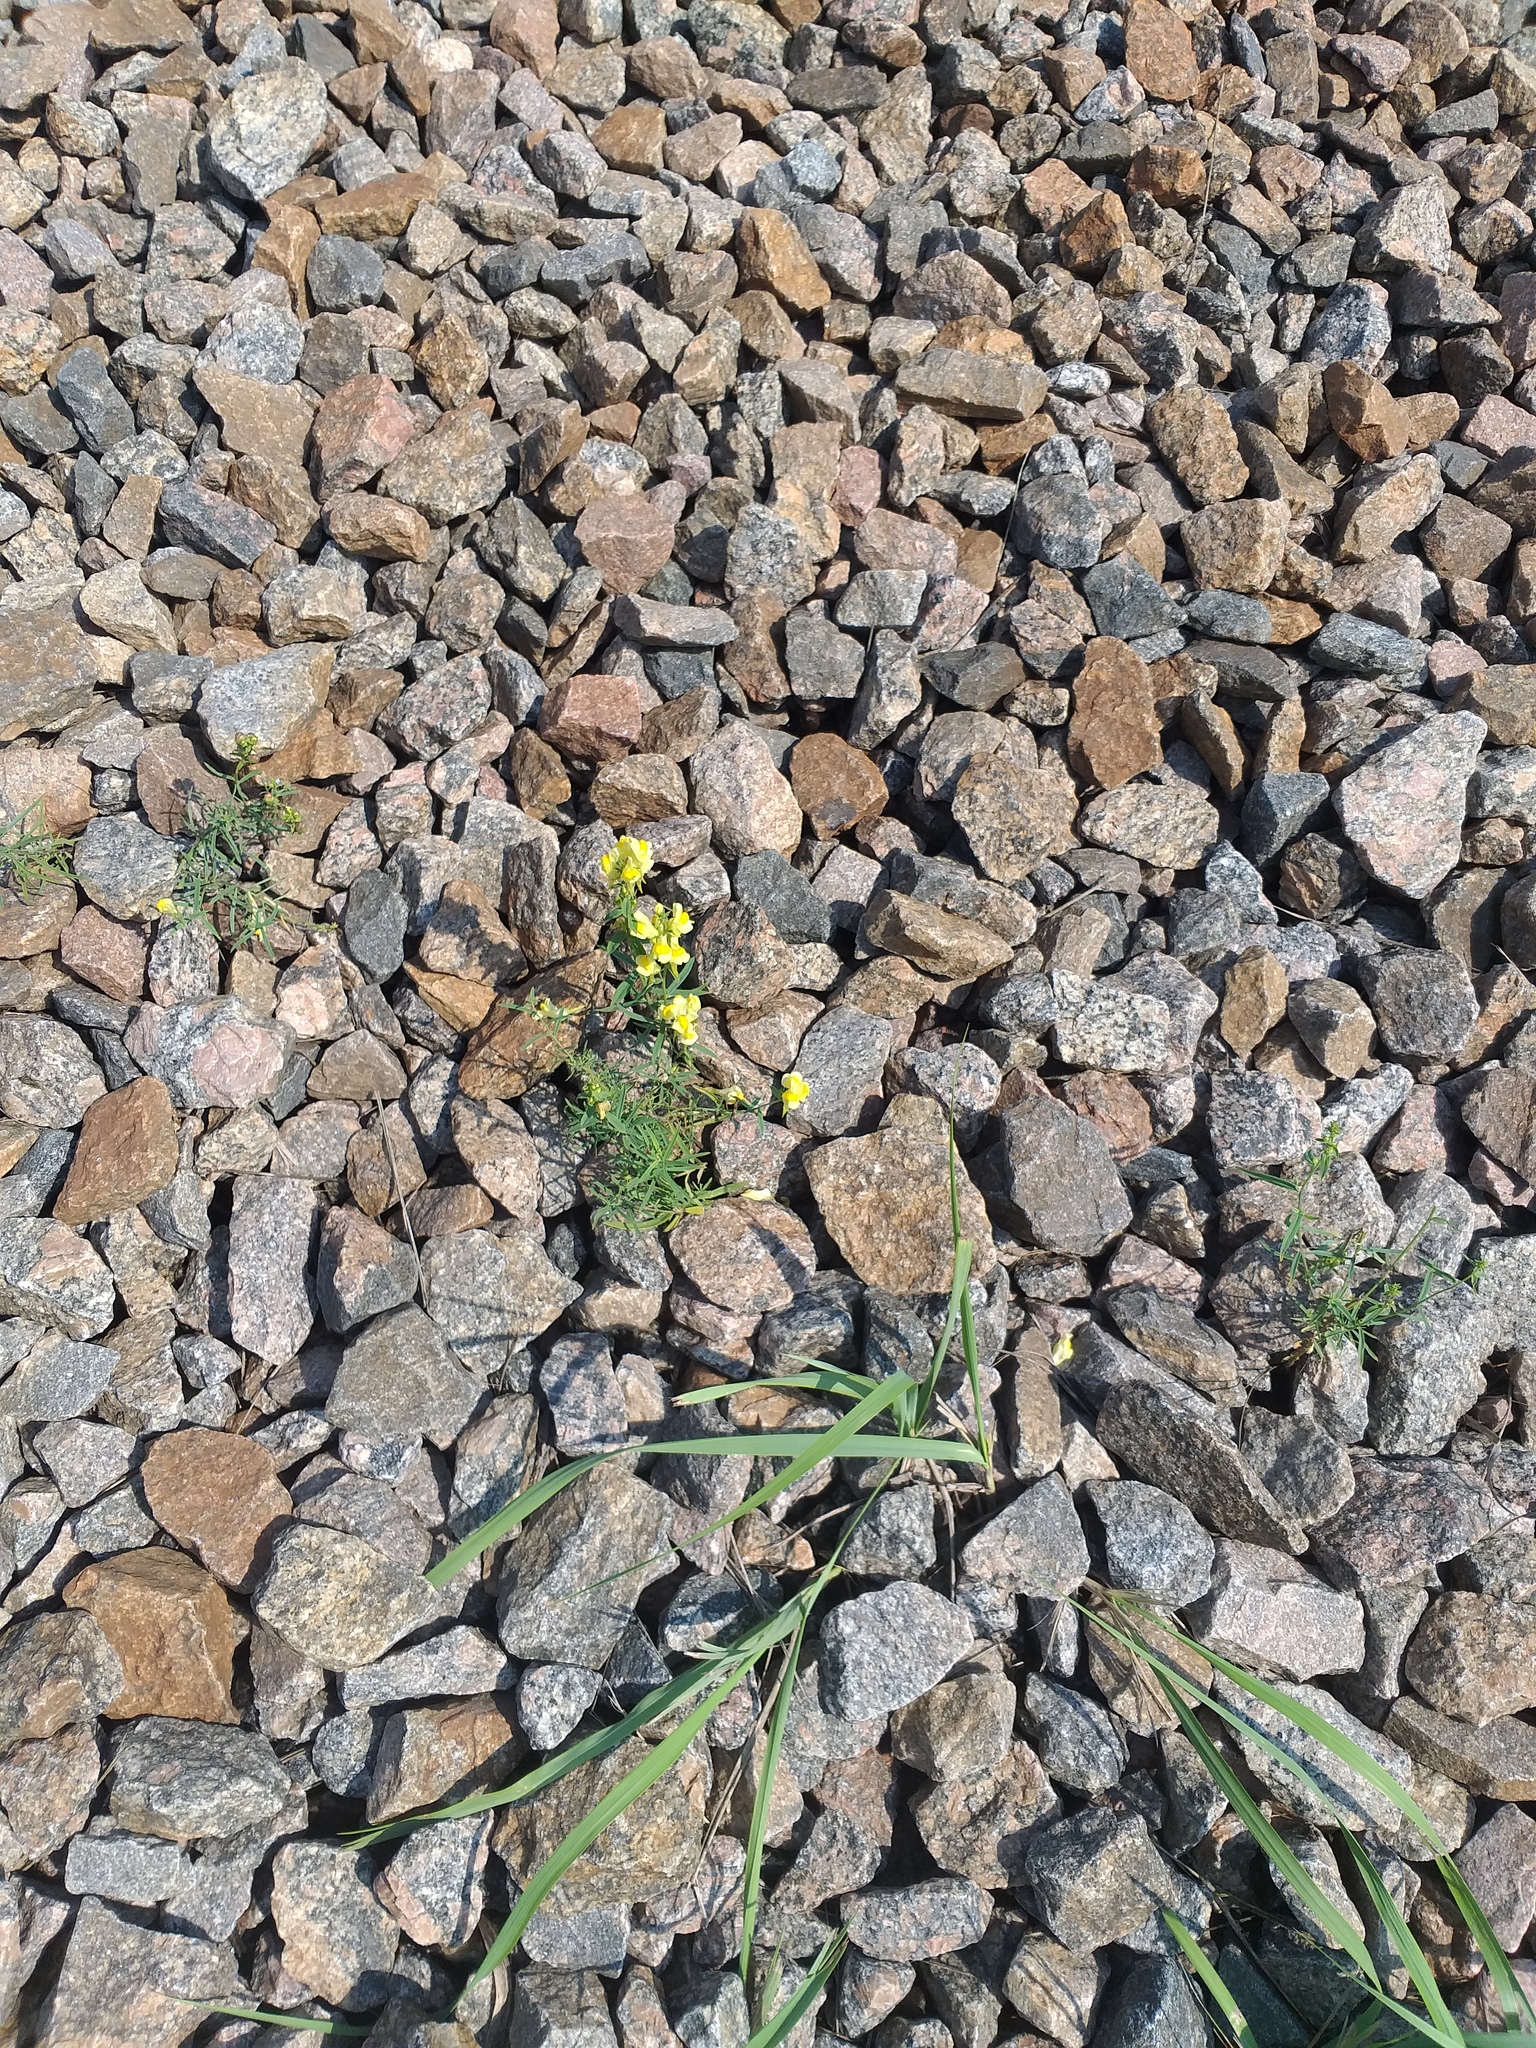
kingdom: Plantae
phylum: Tracheophyta
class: Magnoliopsida
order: Lamiales
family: Plantaginaceae
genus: Linaria
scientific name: Linaria vulgaris
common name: Butter and eggs
